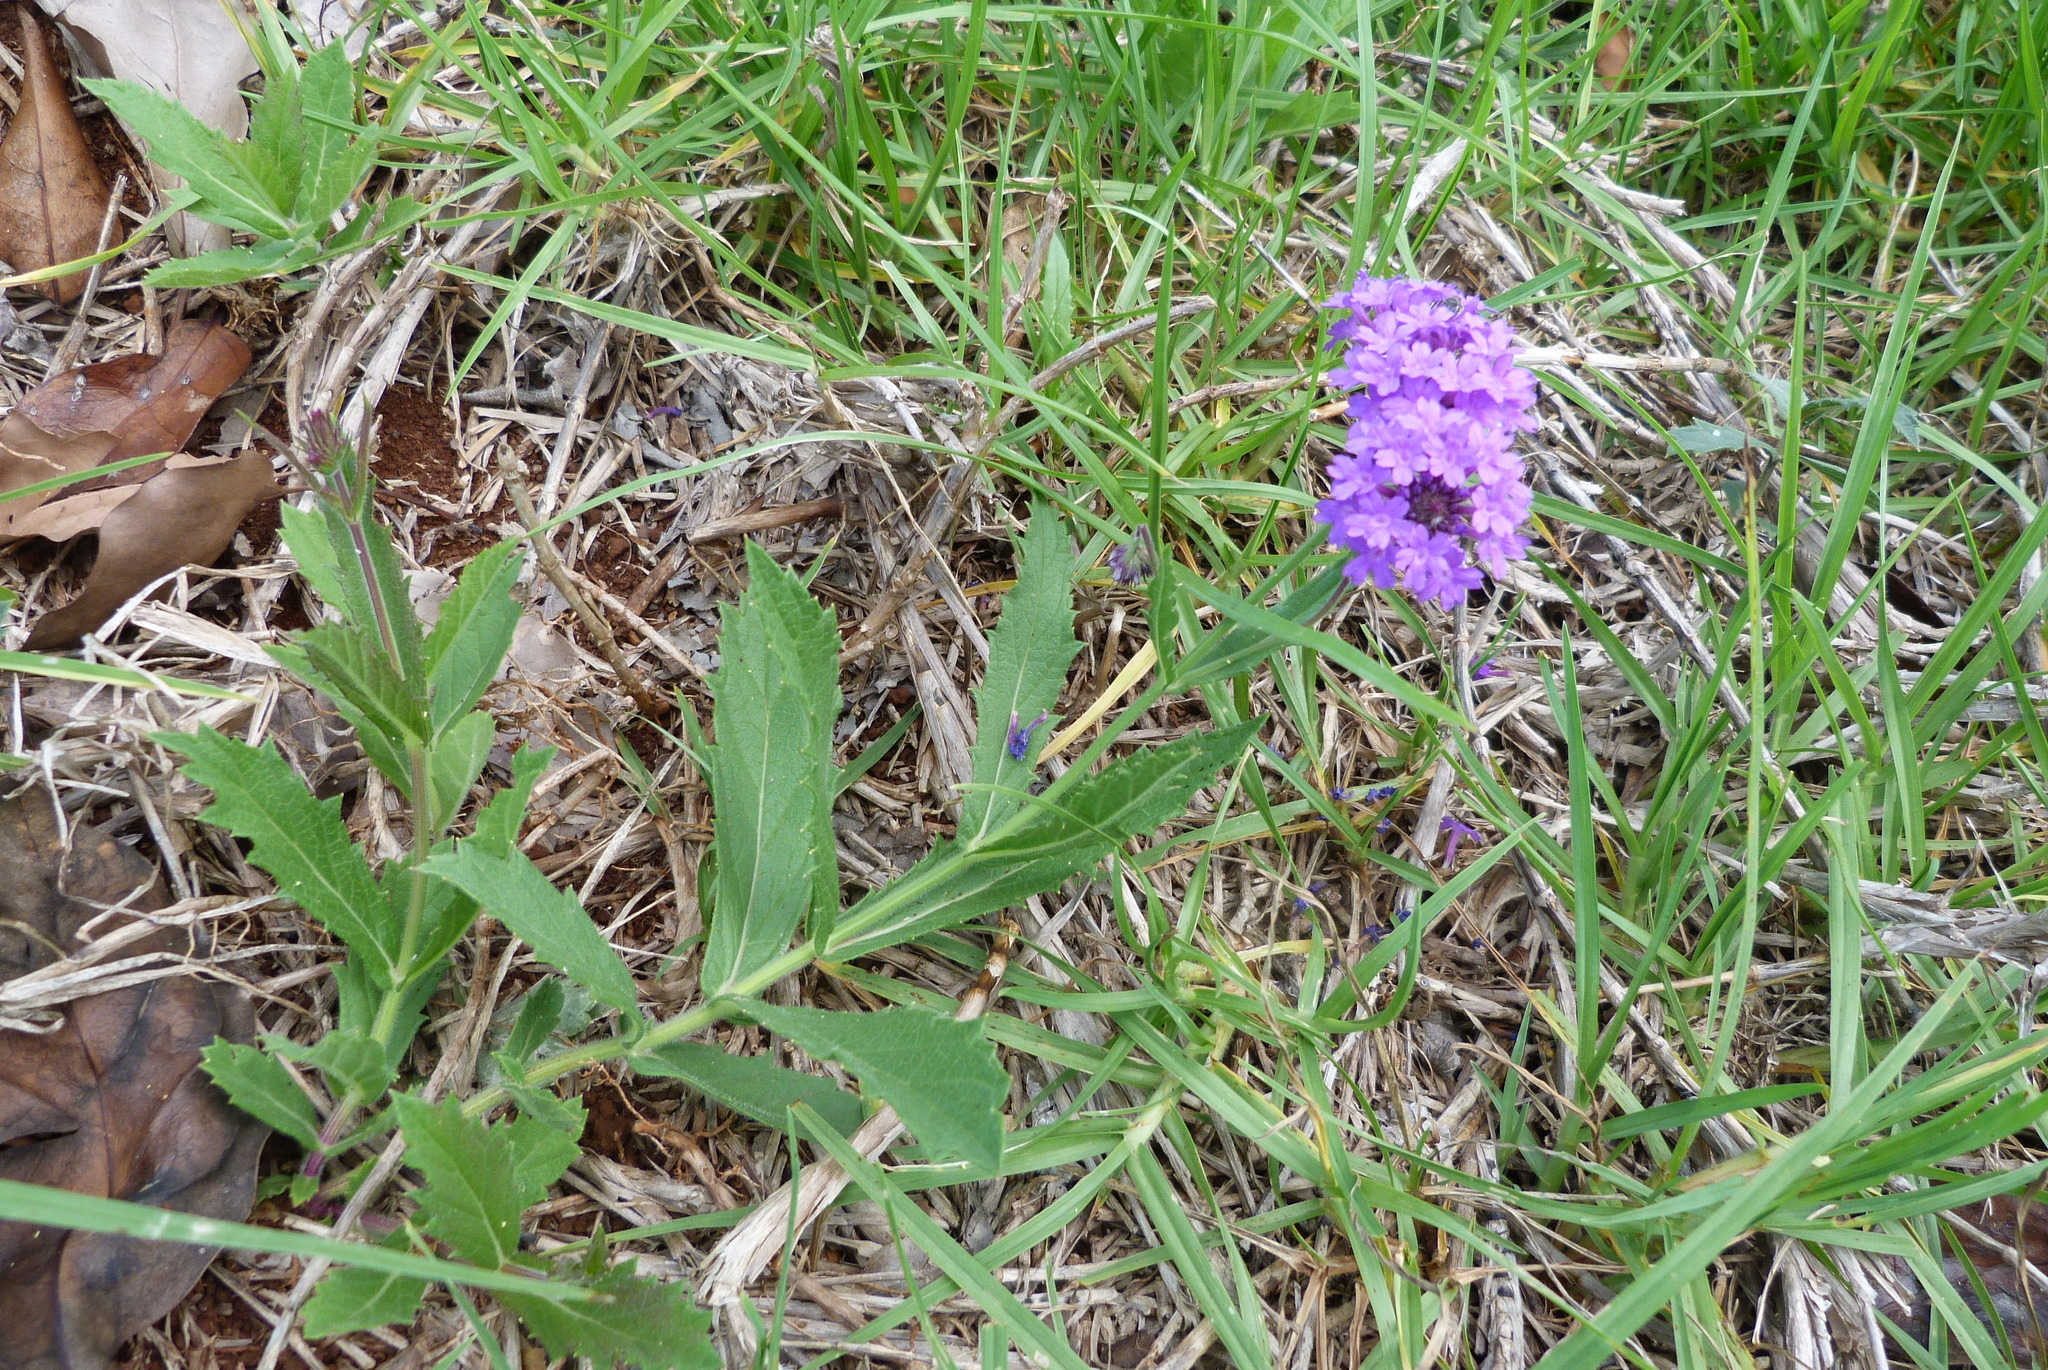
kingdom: Plantae
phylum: Tracheophyta
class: Magnoliopsida
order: Lamiales
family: Verbenaceae
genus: Verbena
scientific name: Verbena rigida
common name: Slender vervain
